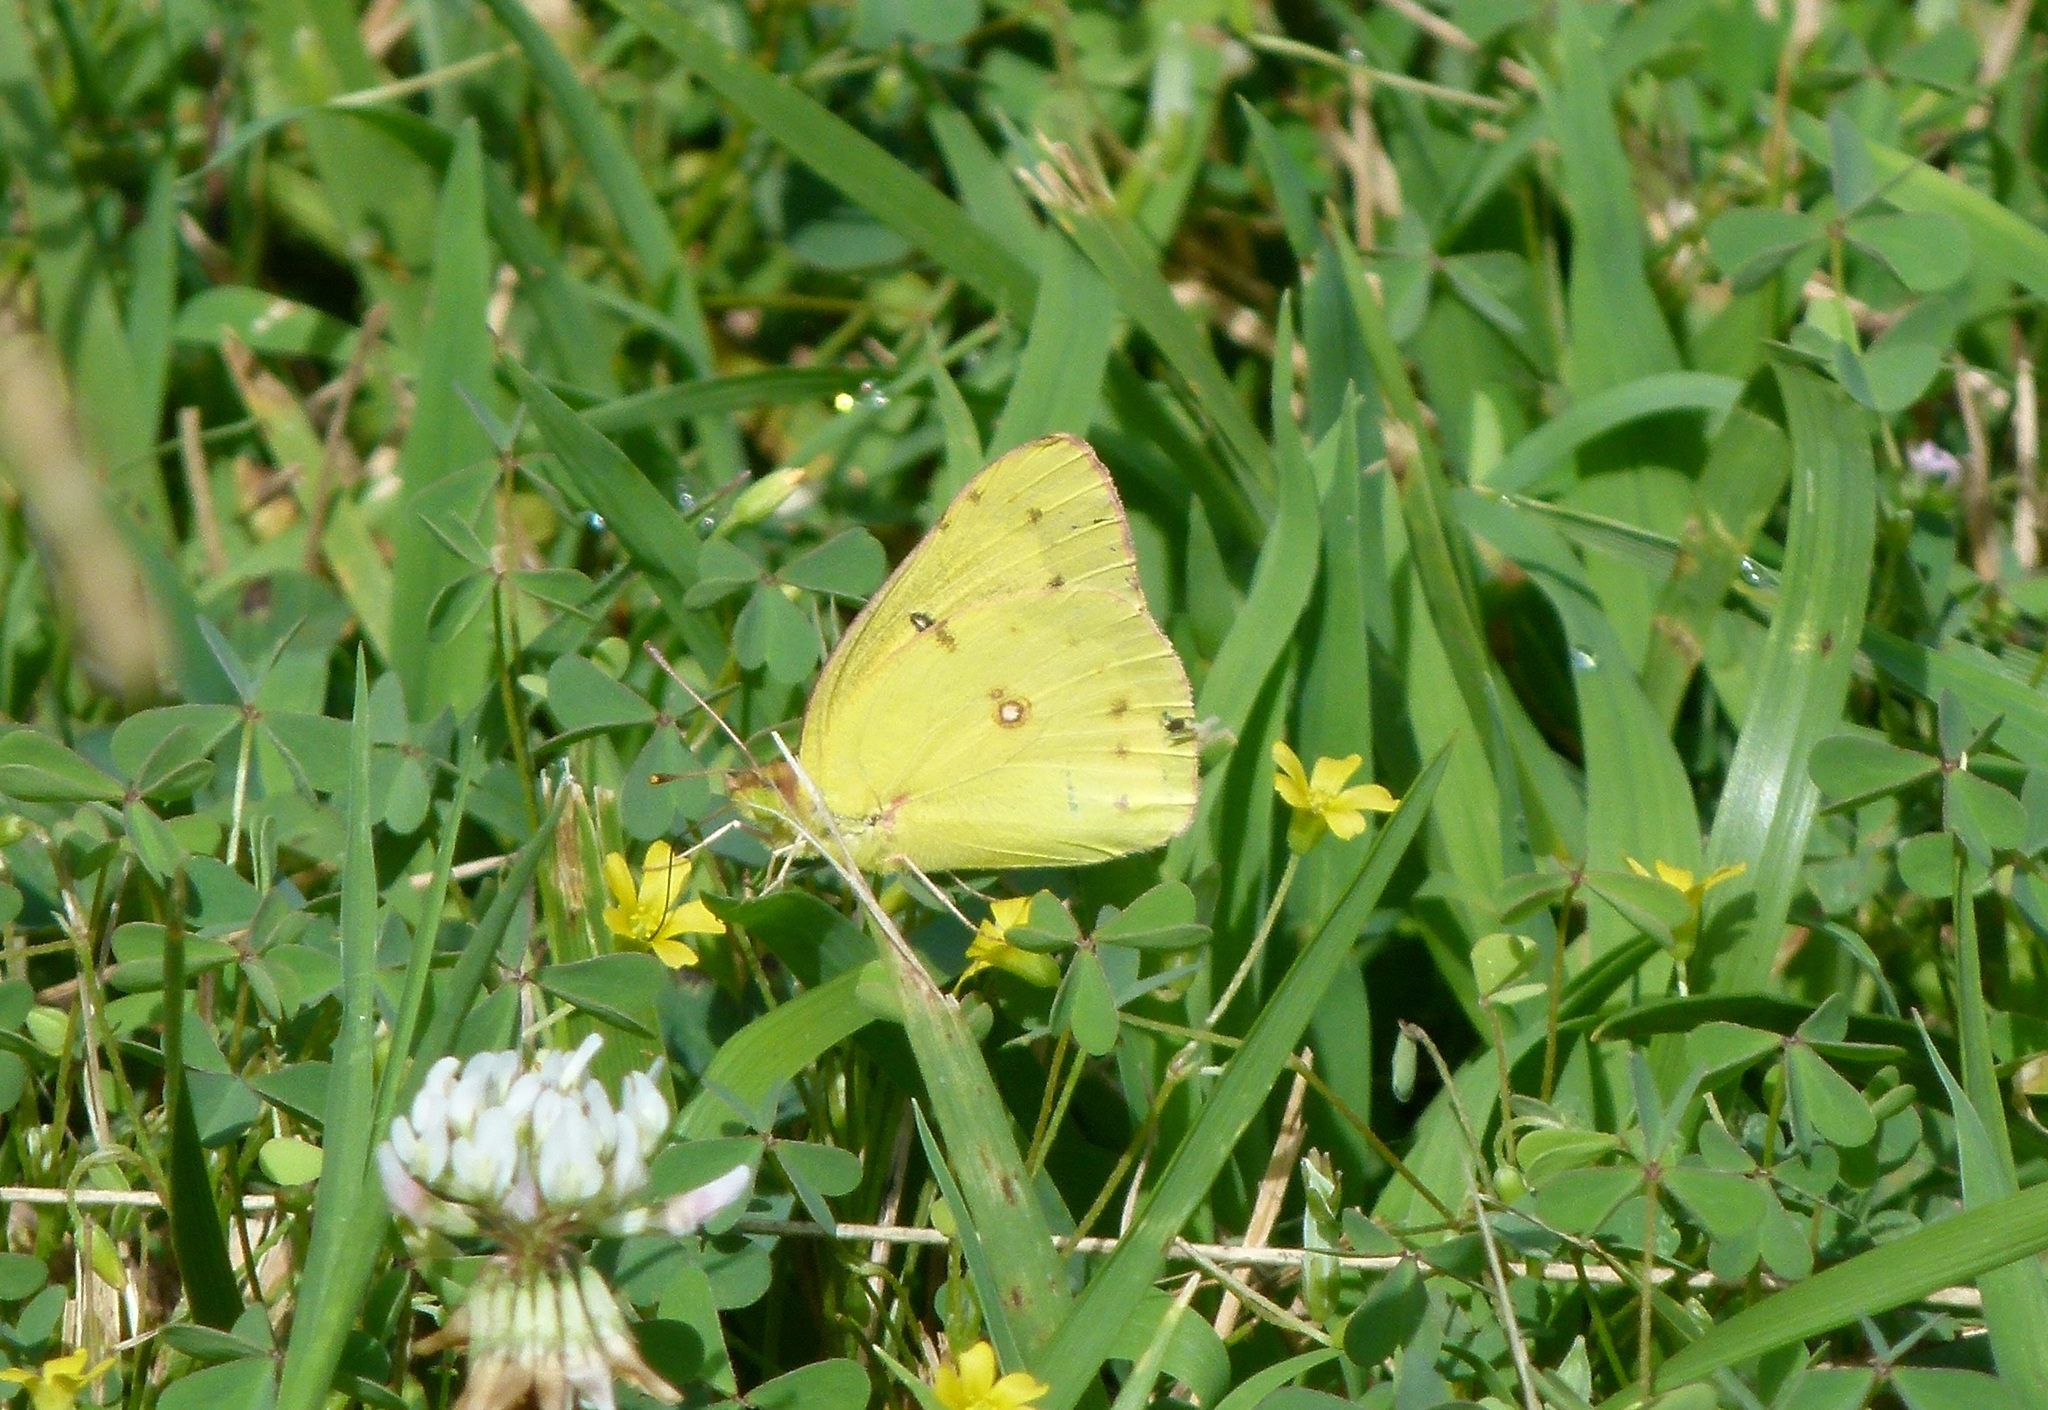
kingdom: Animalia
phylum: Arthropoda
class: Insecta
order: Lepidoptera
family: Pieridae
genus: Colias
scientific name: Colias eurytheme
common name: Alfalfa butterfly
